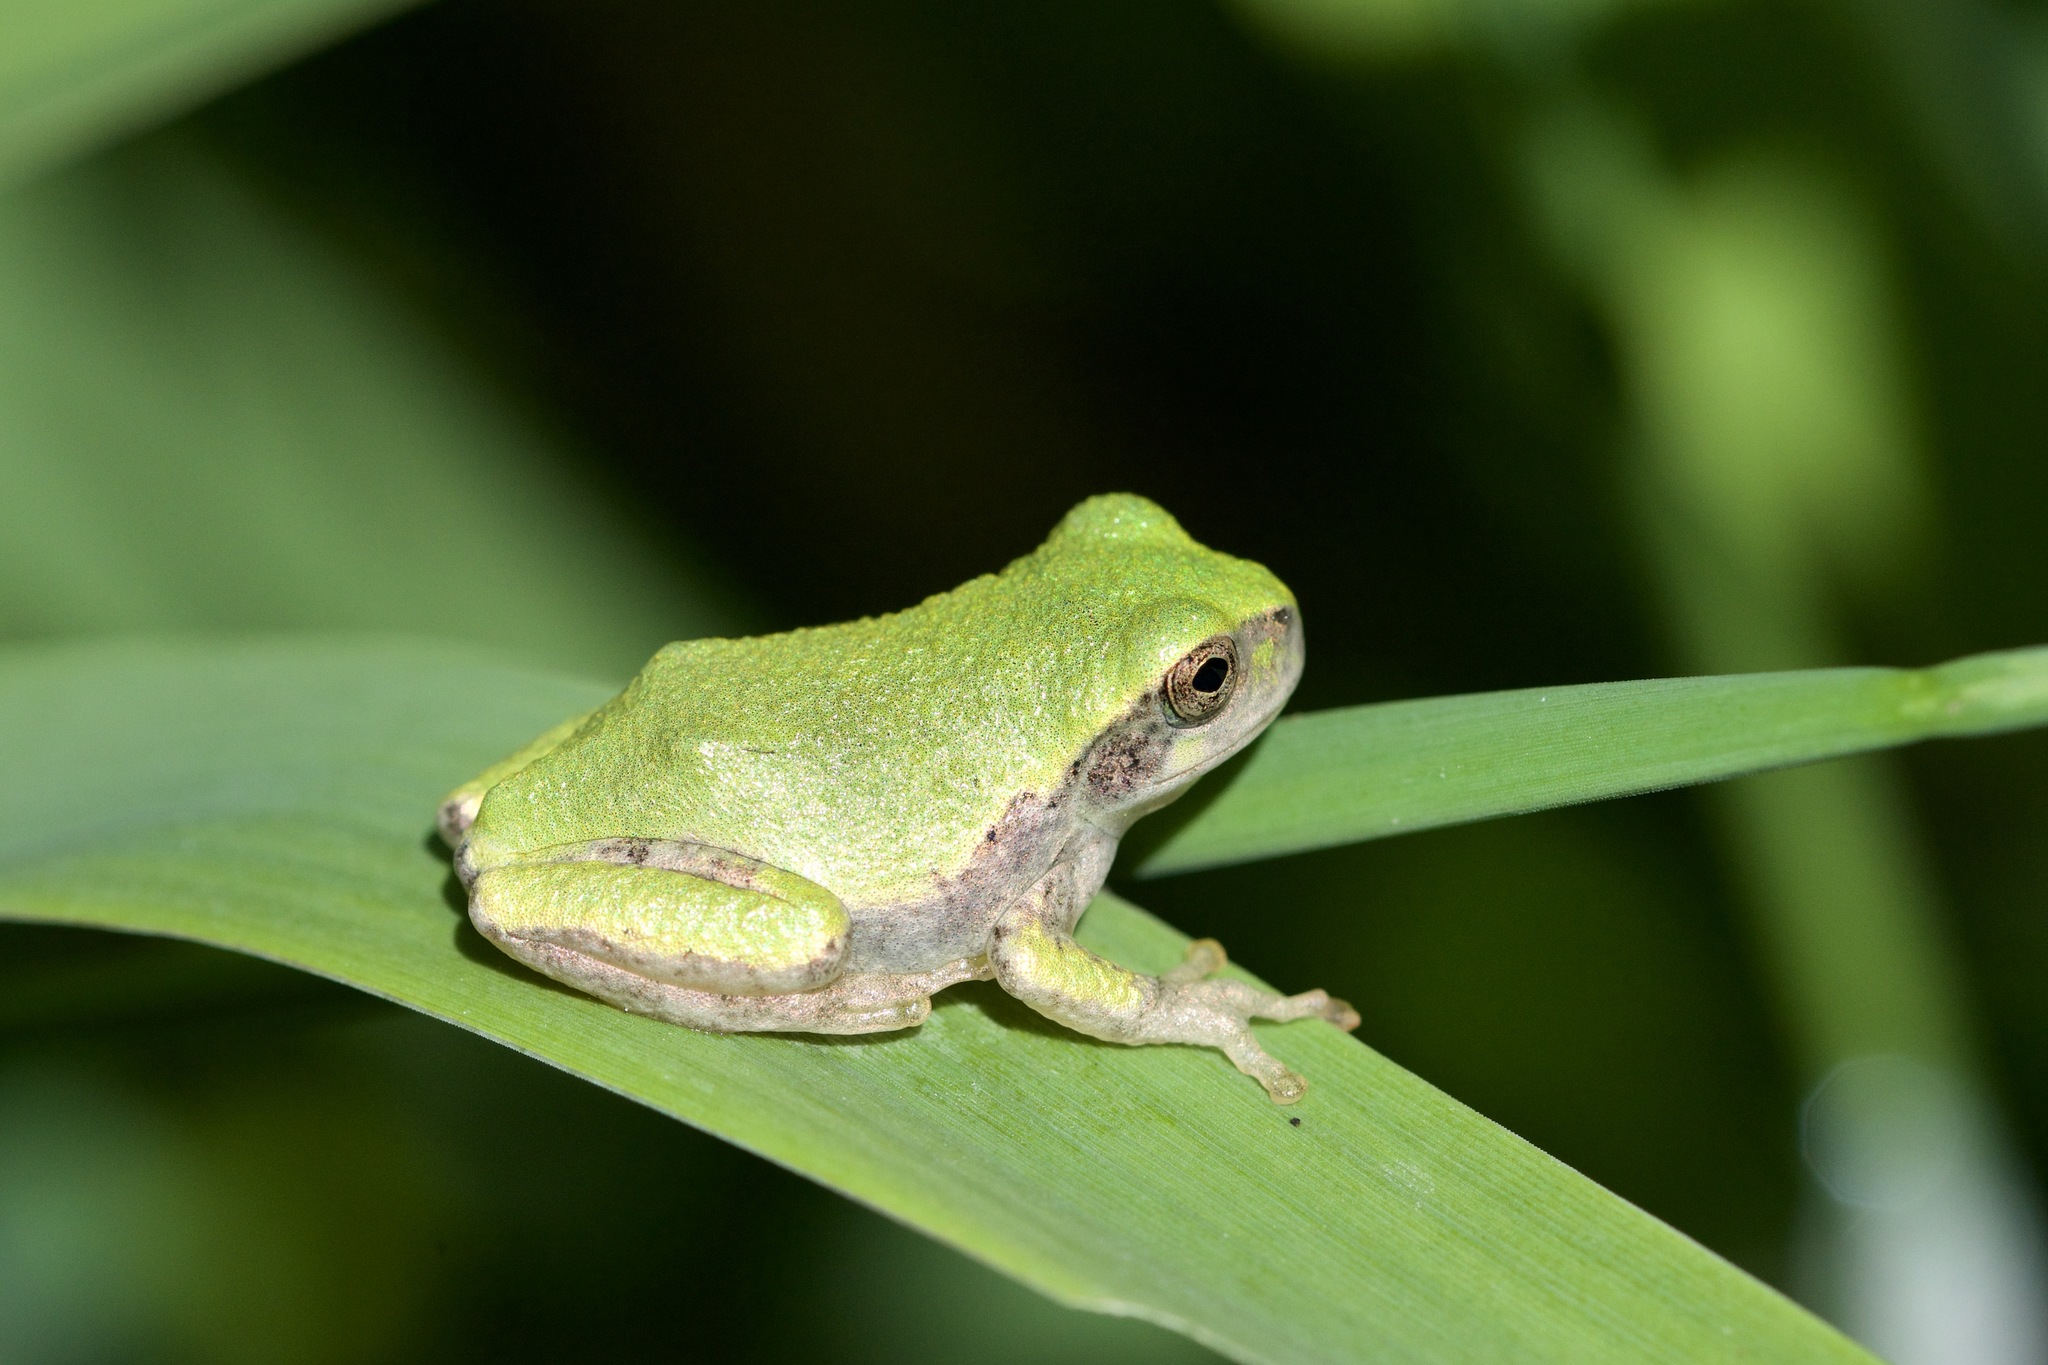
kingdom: Animalia
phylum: Chordata
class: Amphibia
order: Anura
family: Hylidae
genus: Dryophytes
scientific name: Dryophytes versicolor
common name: Gray treefrog
